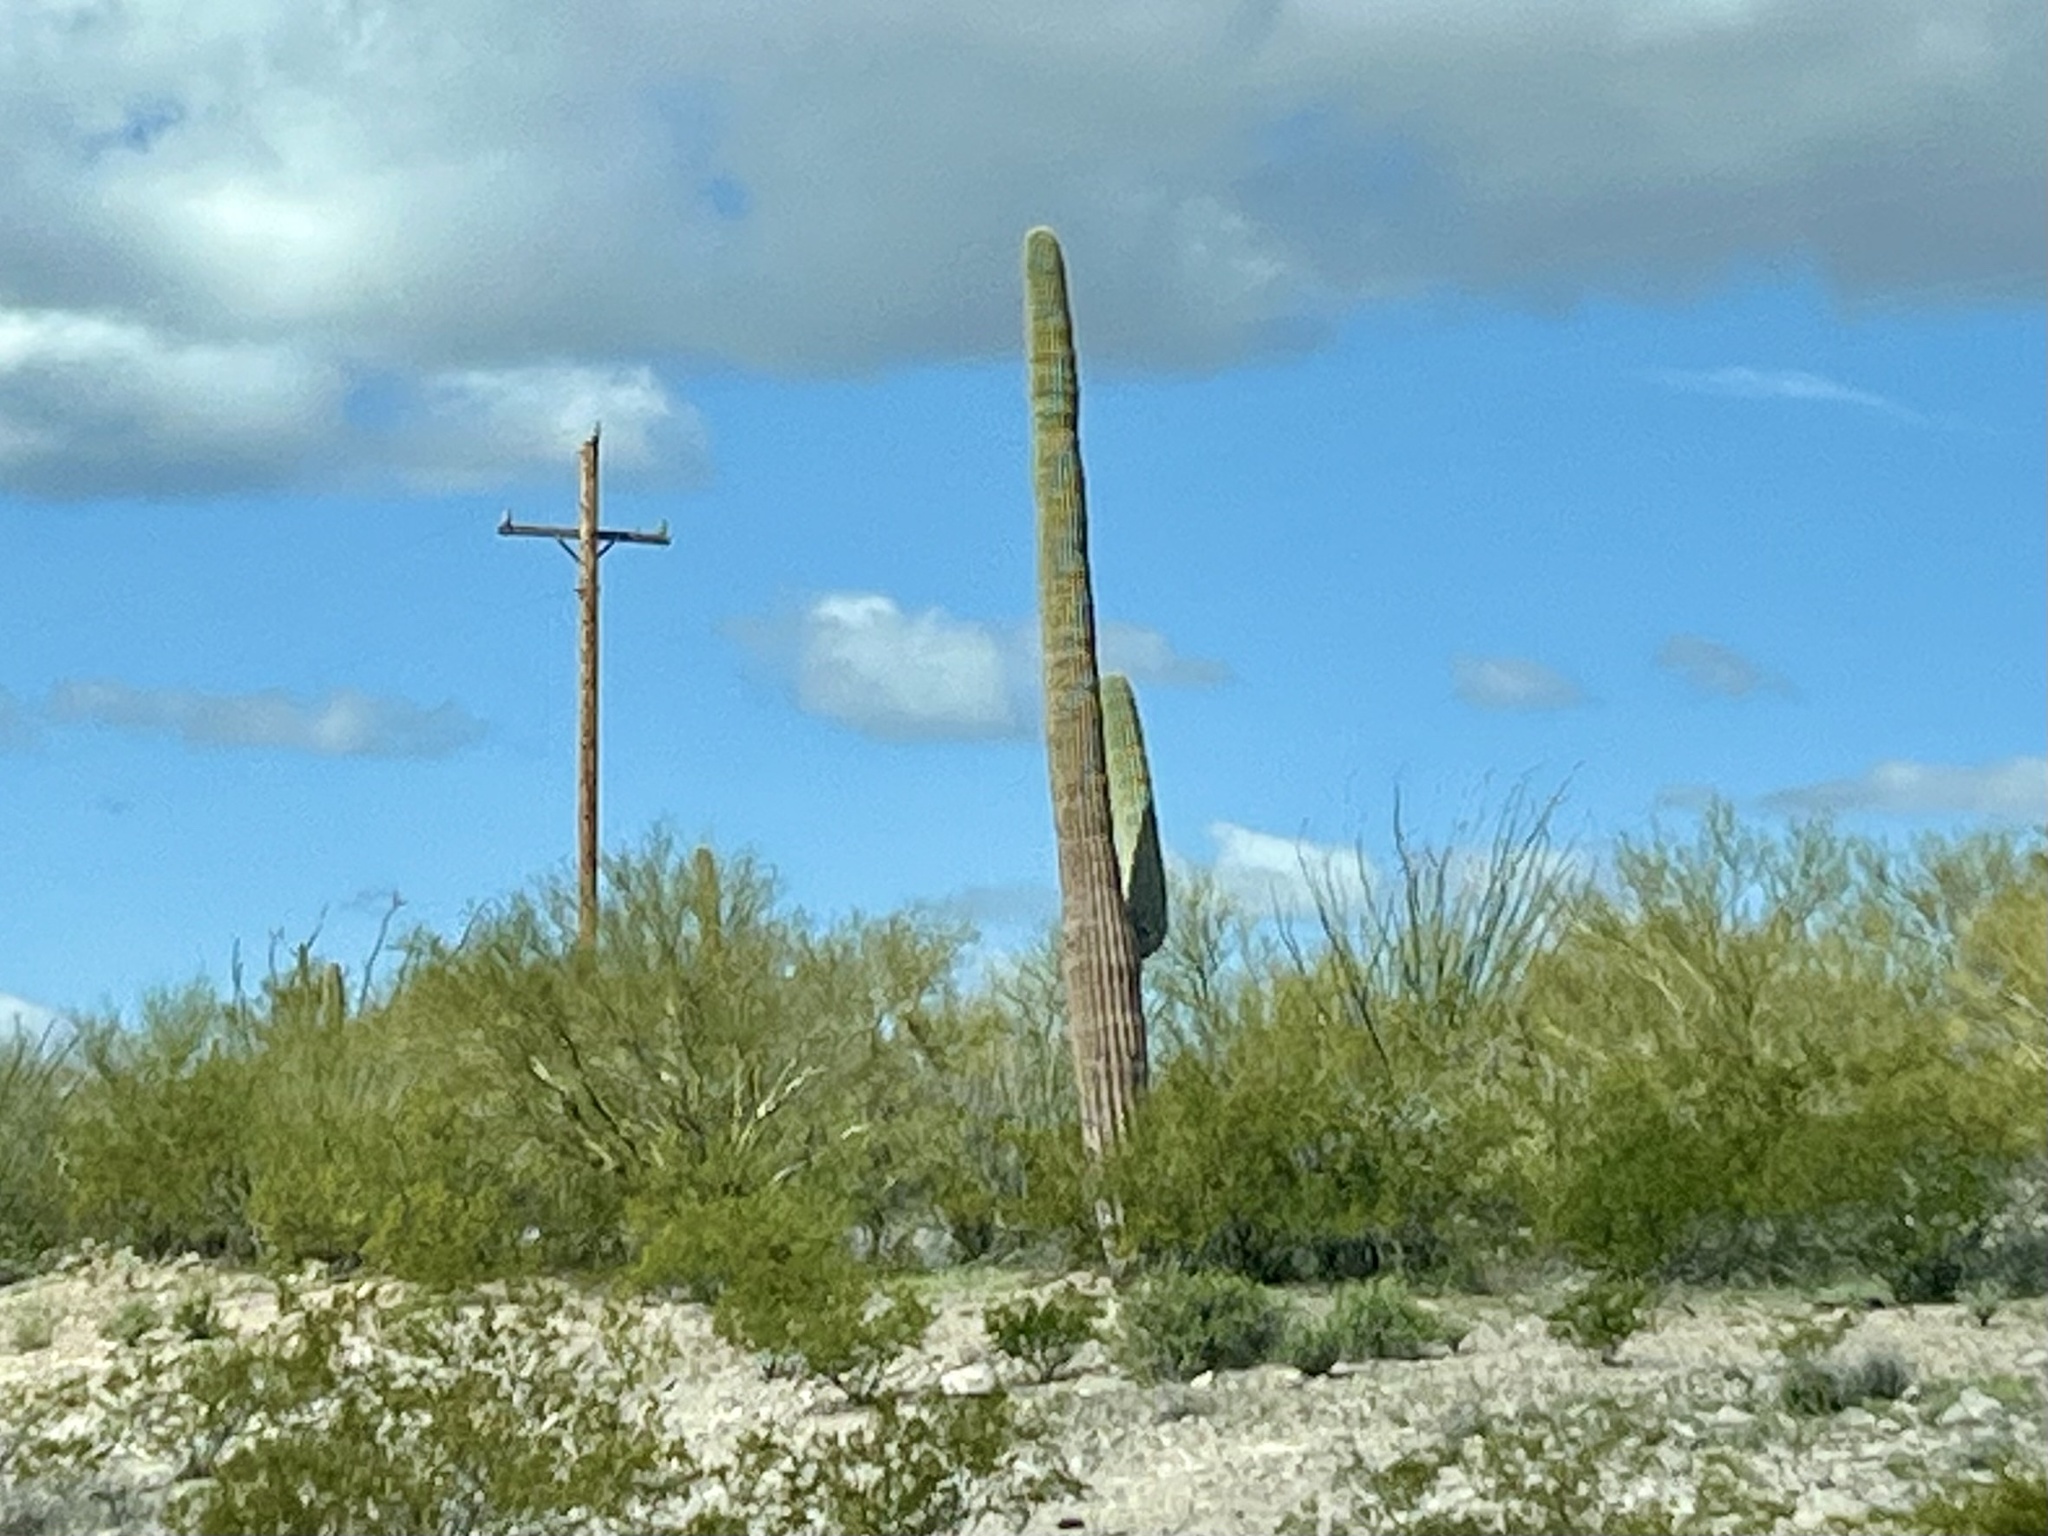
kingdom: Plantae
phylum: Tracheophyta
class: Magnoliopsida
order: Caryophyllales
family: Cactaceae
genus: Carnegiea
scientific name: Carnegiea gigantea
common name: Saguaro
